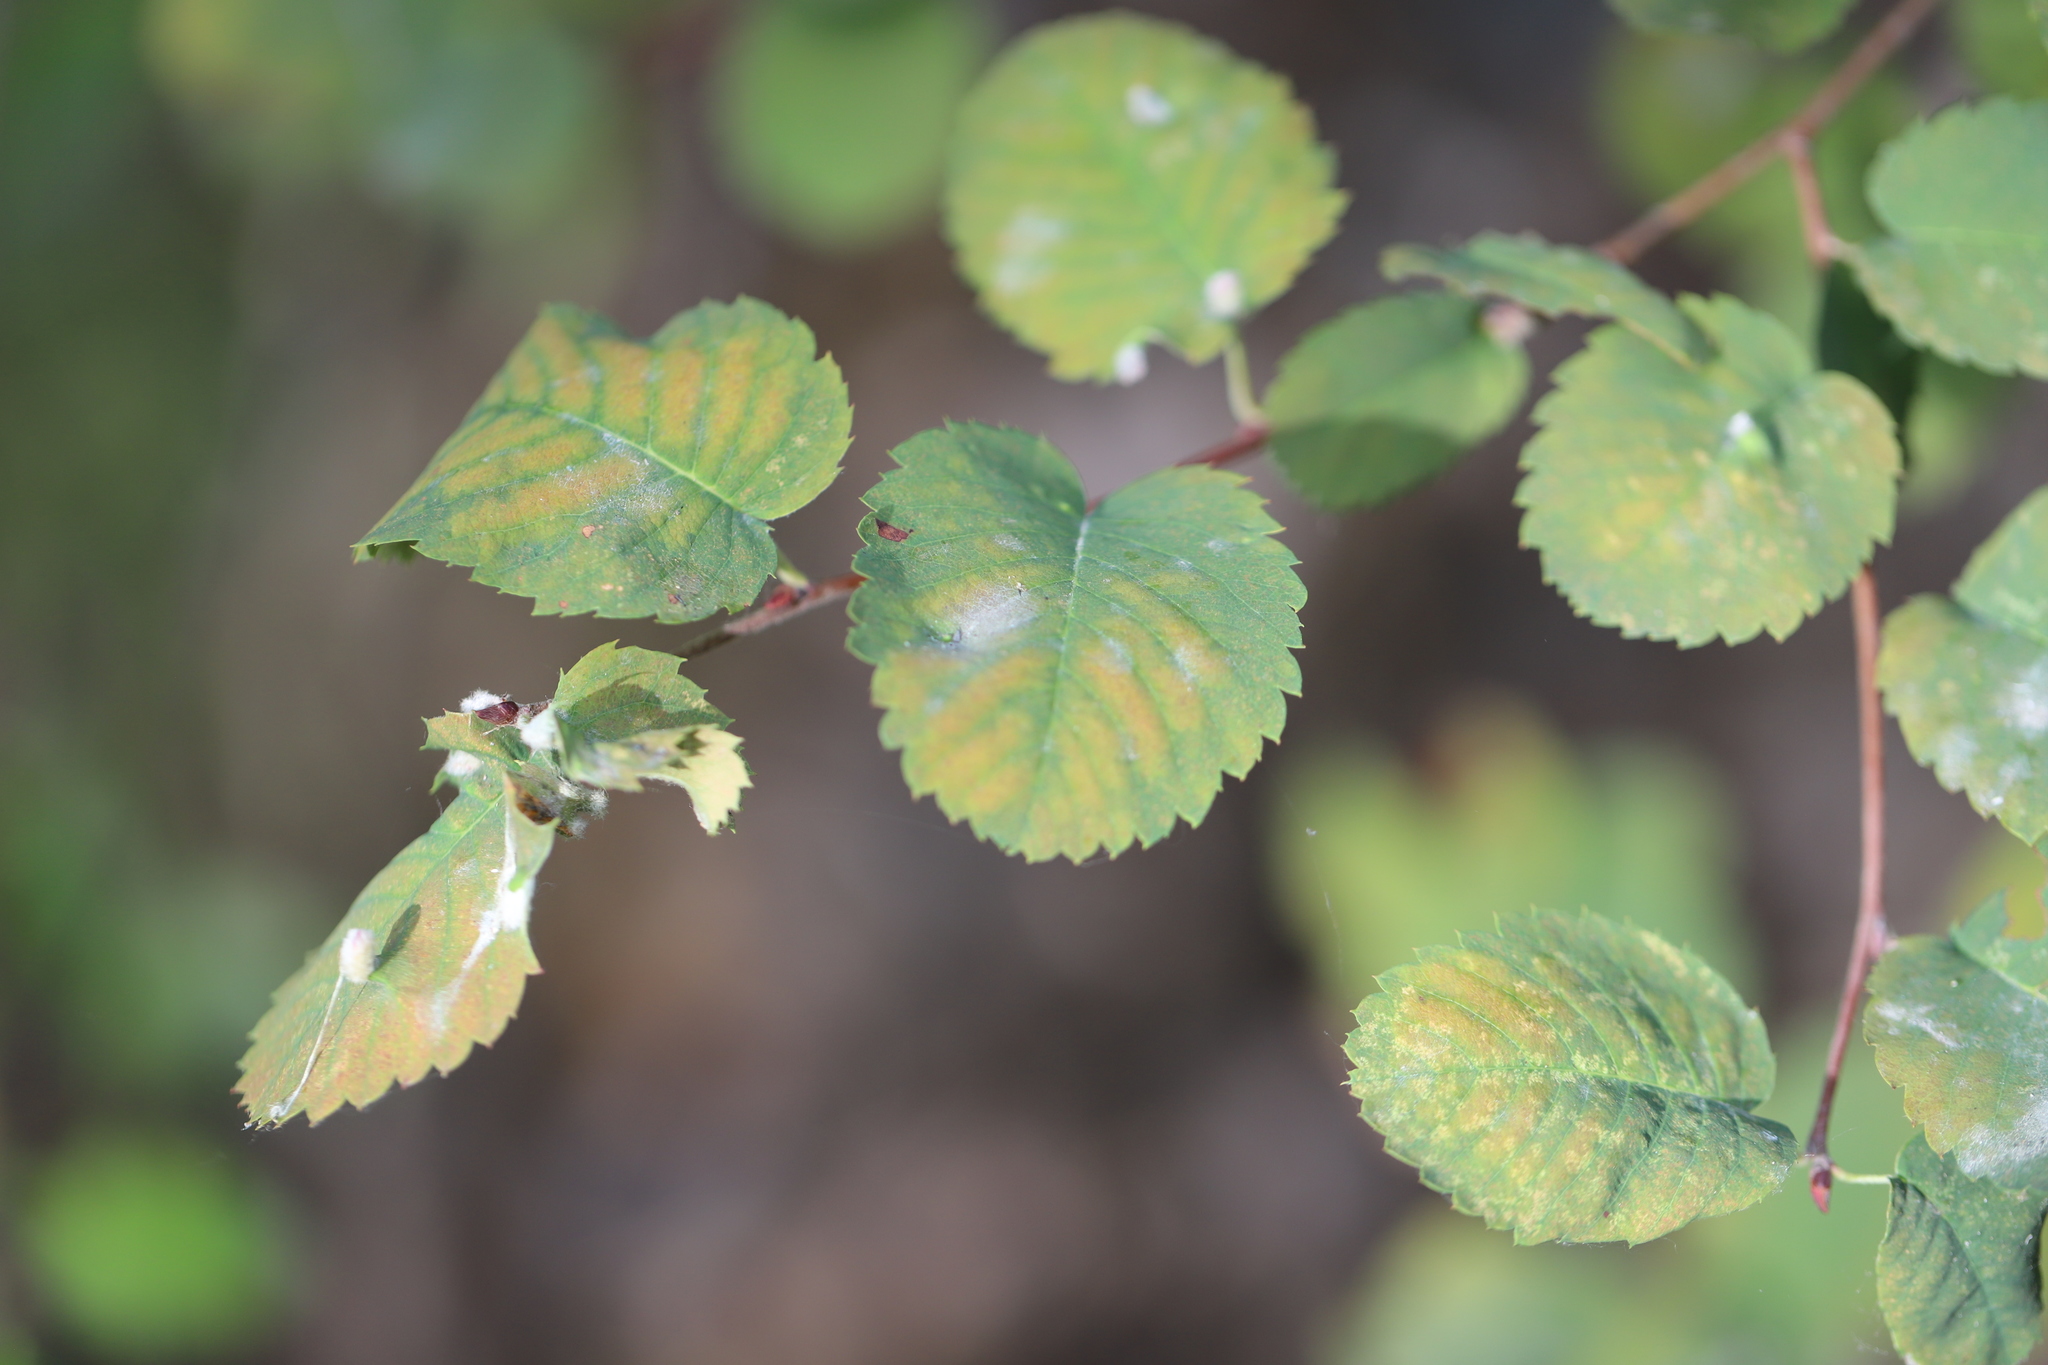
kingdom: Plantae
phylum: Tracheophyta
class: Magnoliopsida
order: Rosales
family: Rosaceae
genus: Amelanchier
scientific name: Amelanchier alnifolia
